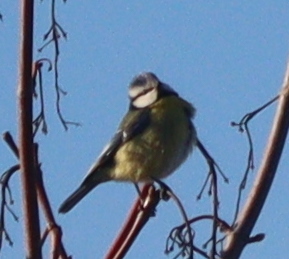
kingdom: Animalia
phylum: Chordata
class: Aves
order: Passeriformes
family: Paridae
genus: Cyanistes
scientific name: Cyanistes caeruleus
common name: Eurasian blue tit
